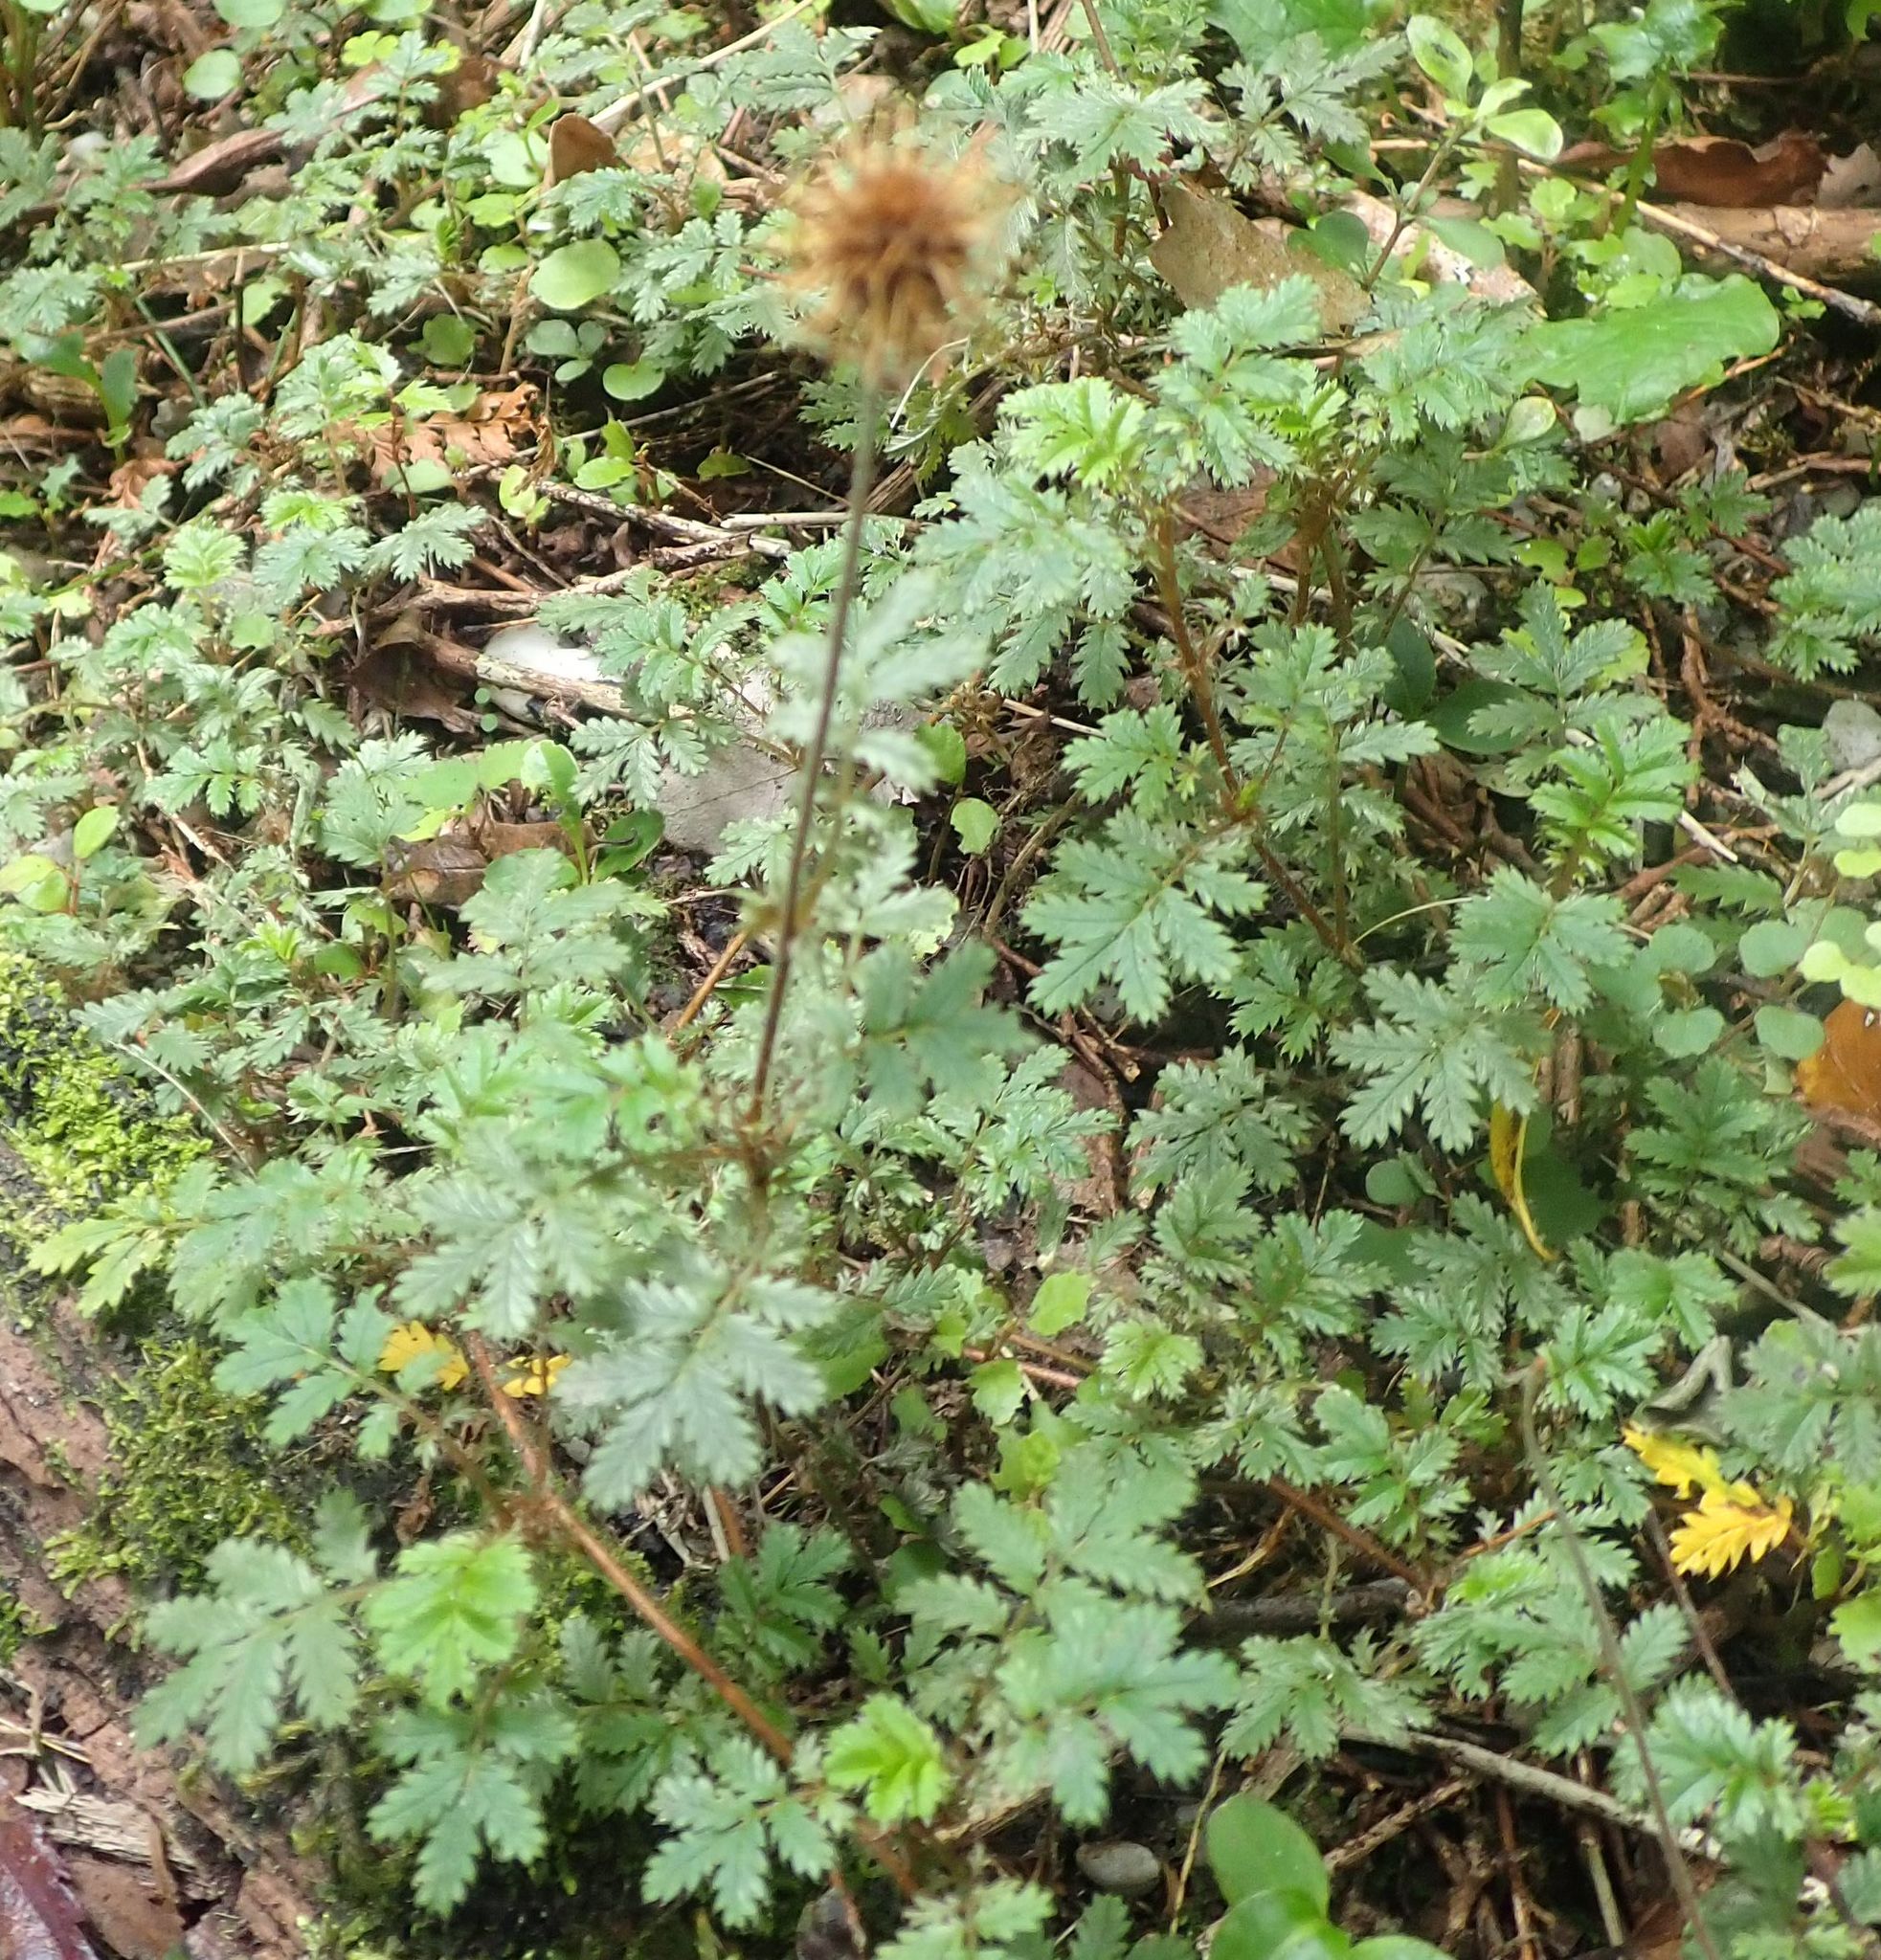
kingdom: Plantae
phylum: Tracheophyta
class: Magnoliopsida
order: Rosales
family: Rosaceae
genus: Acaena
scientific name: Acaena anserinifolia
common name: Bronze pirri-pirri-bur
